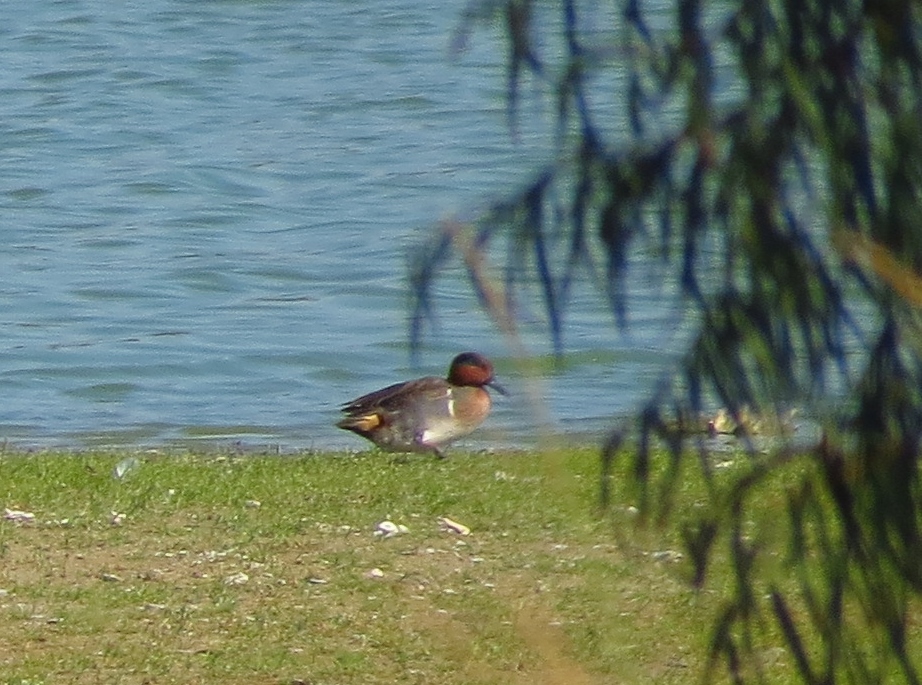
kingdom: Animalia
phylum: Chordata
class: Aves
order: Anseriformes
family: Anatidae
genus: Anas
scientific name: Anas crecca
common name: Eurasian teal
